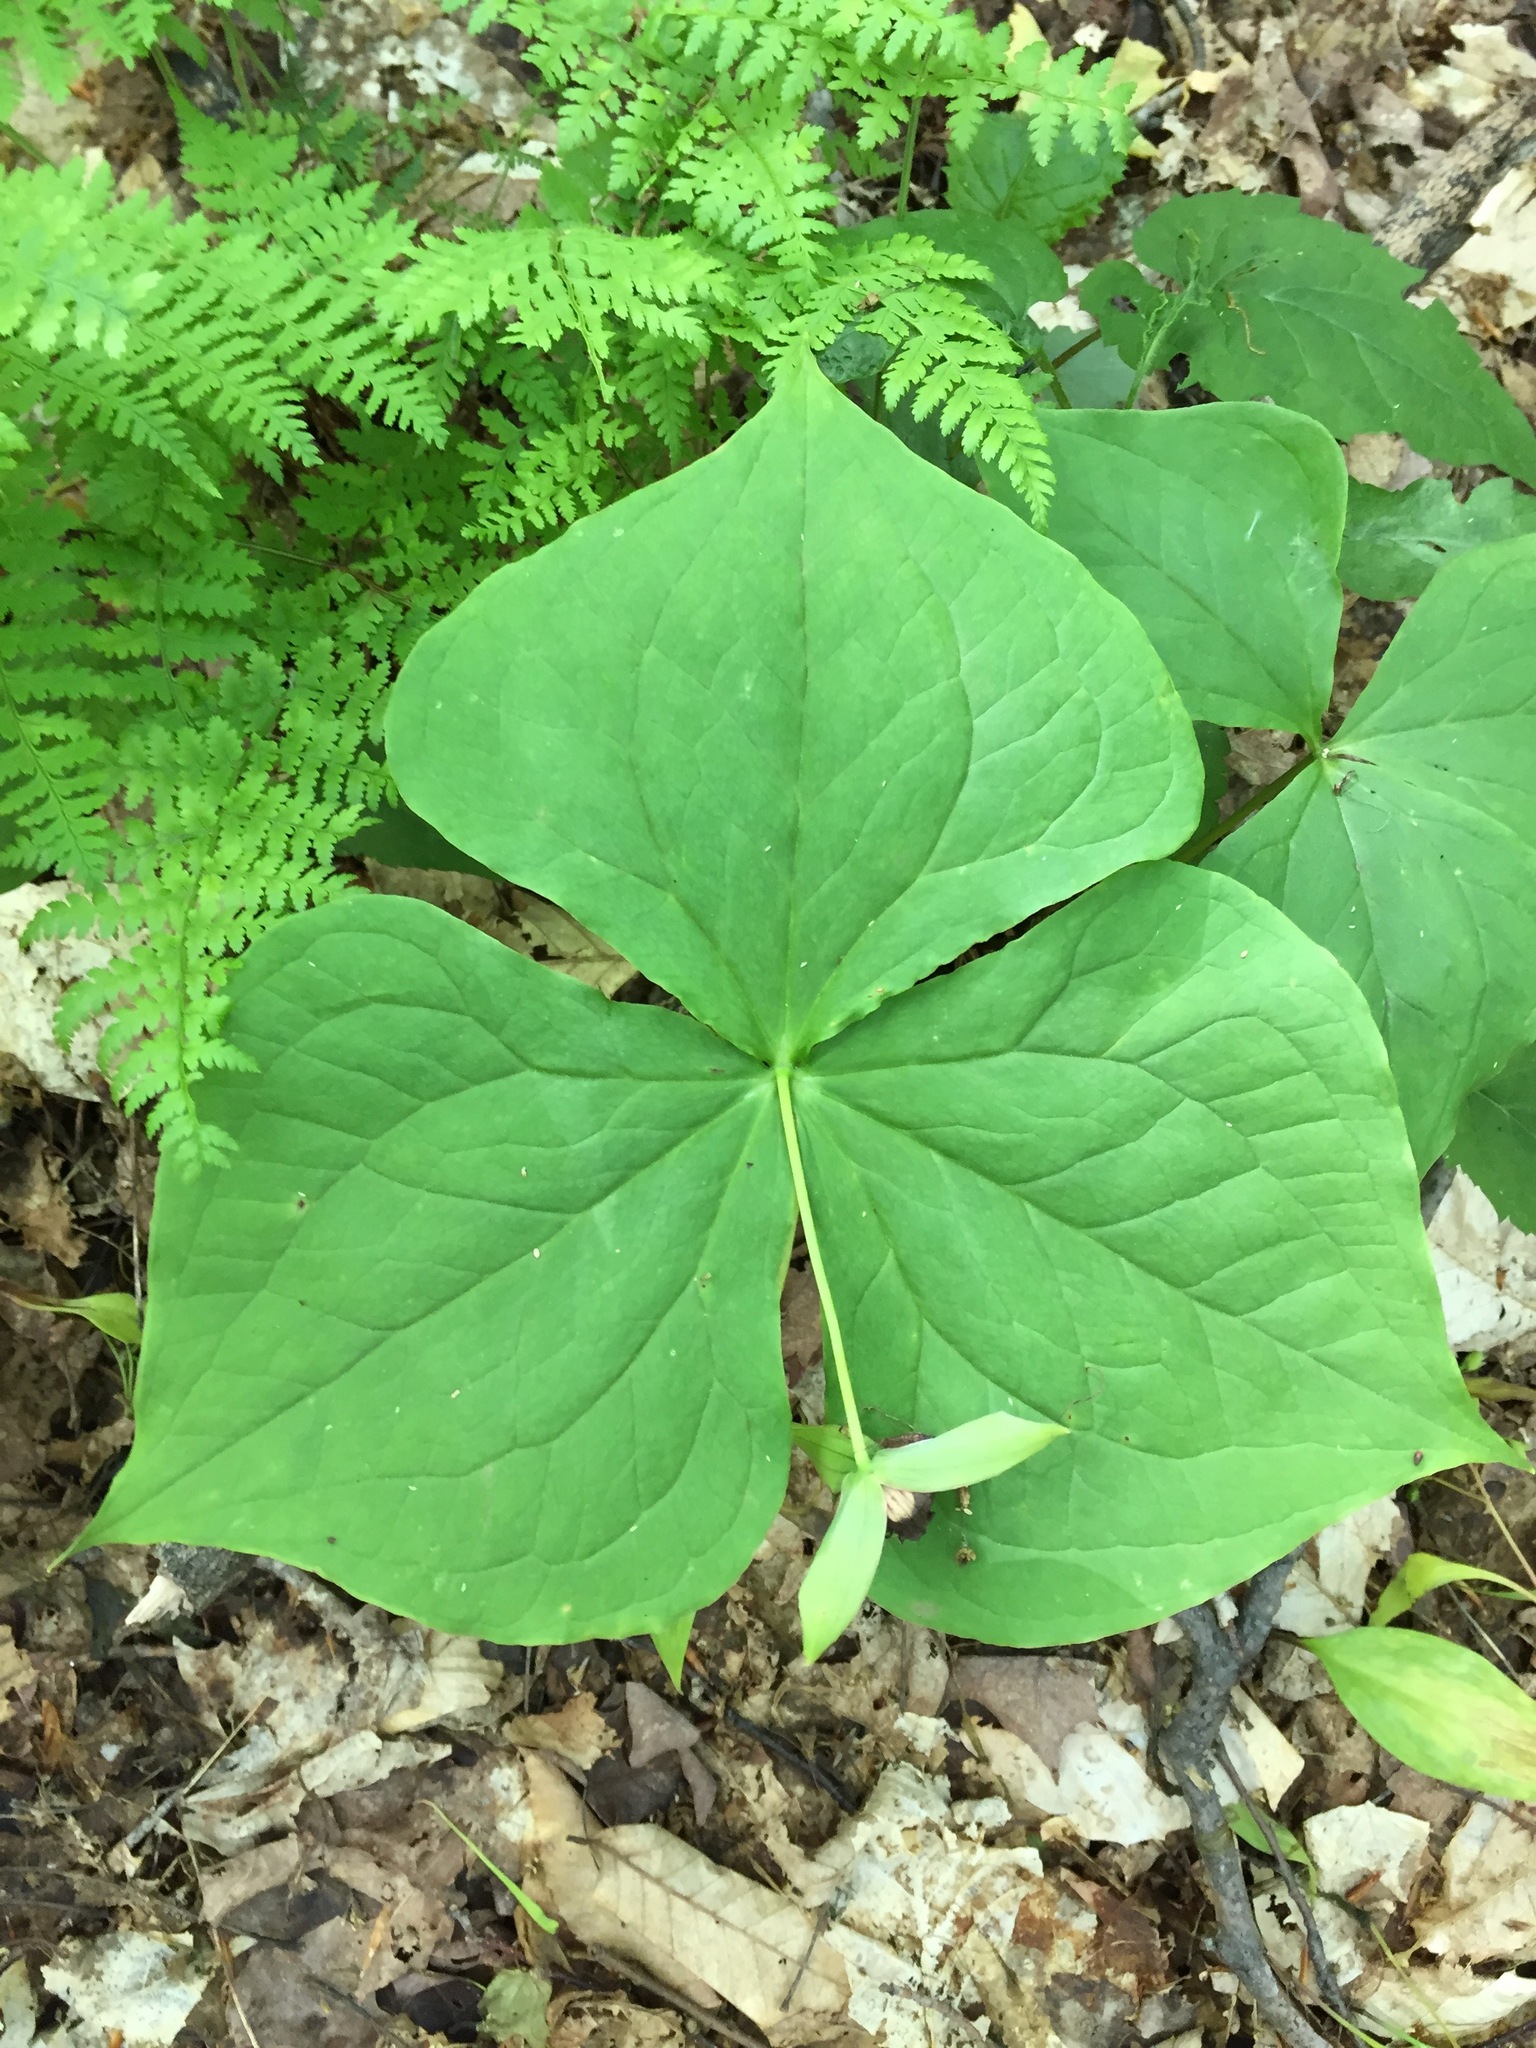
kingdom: Plantae
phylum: Tracheophyta
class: Liliopsida
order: Liliales
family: Melanthiaceae
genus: Trillium
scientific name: Trillium erectum
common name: Purple trillium
